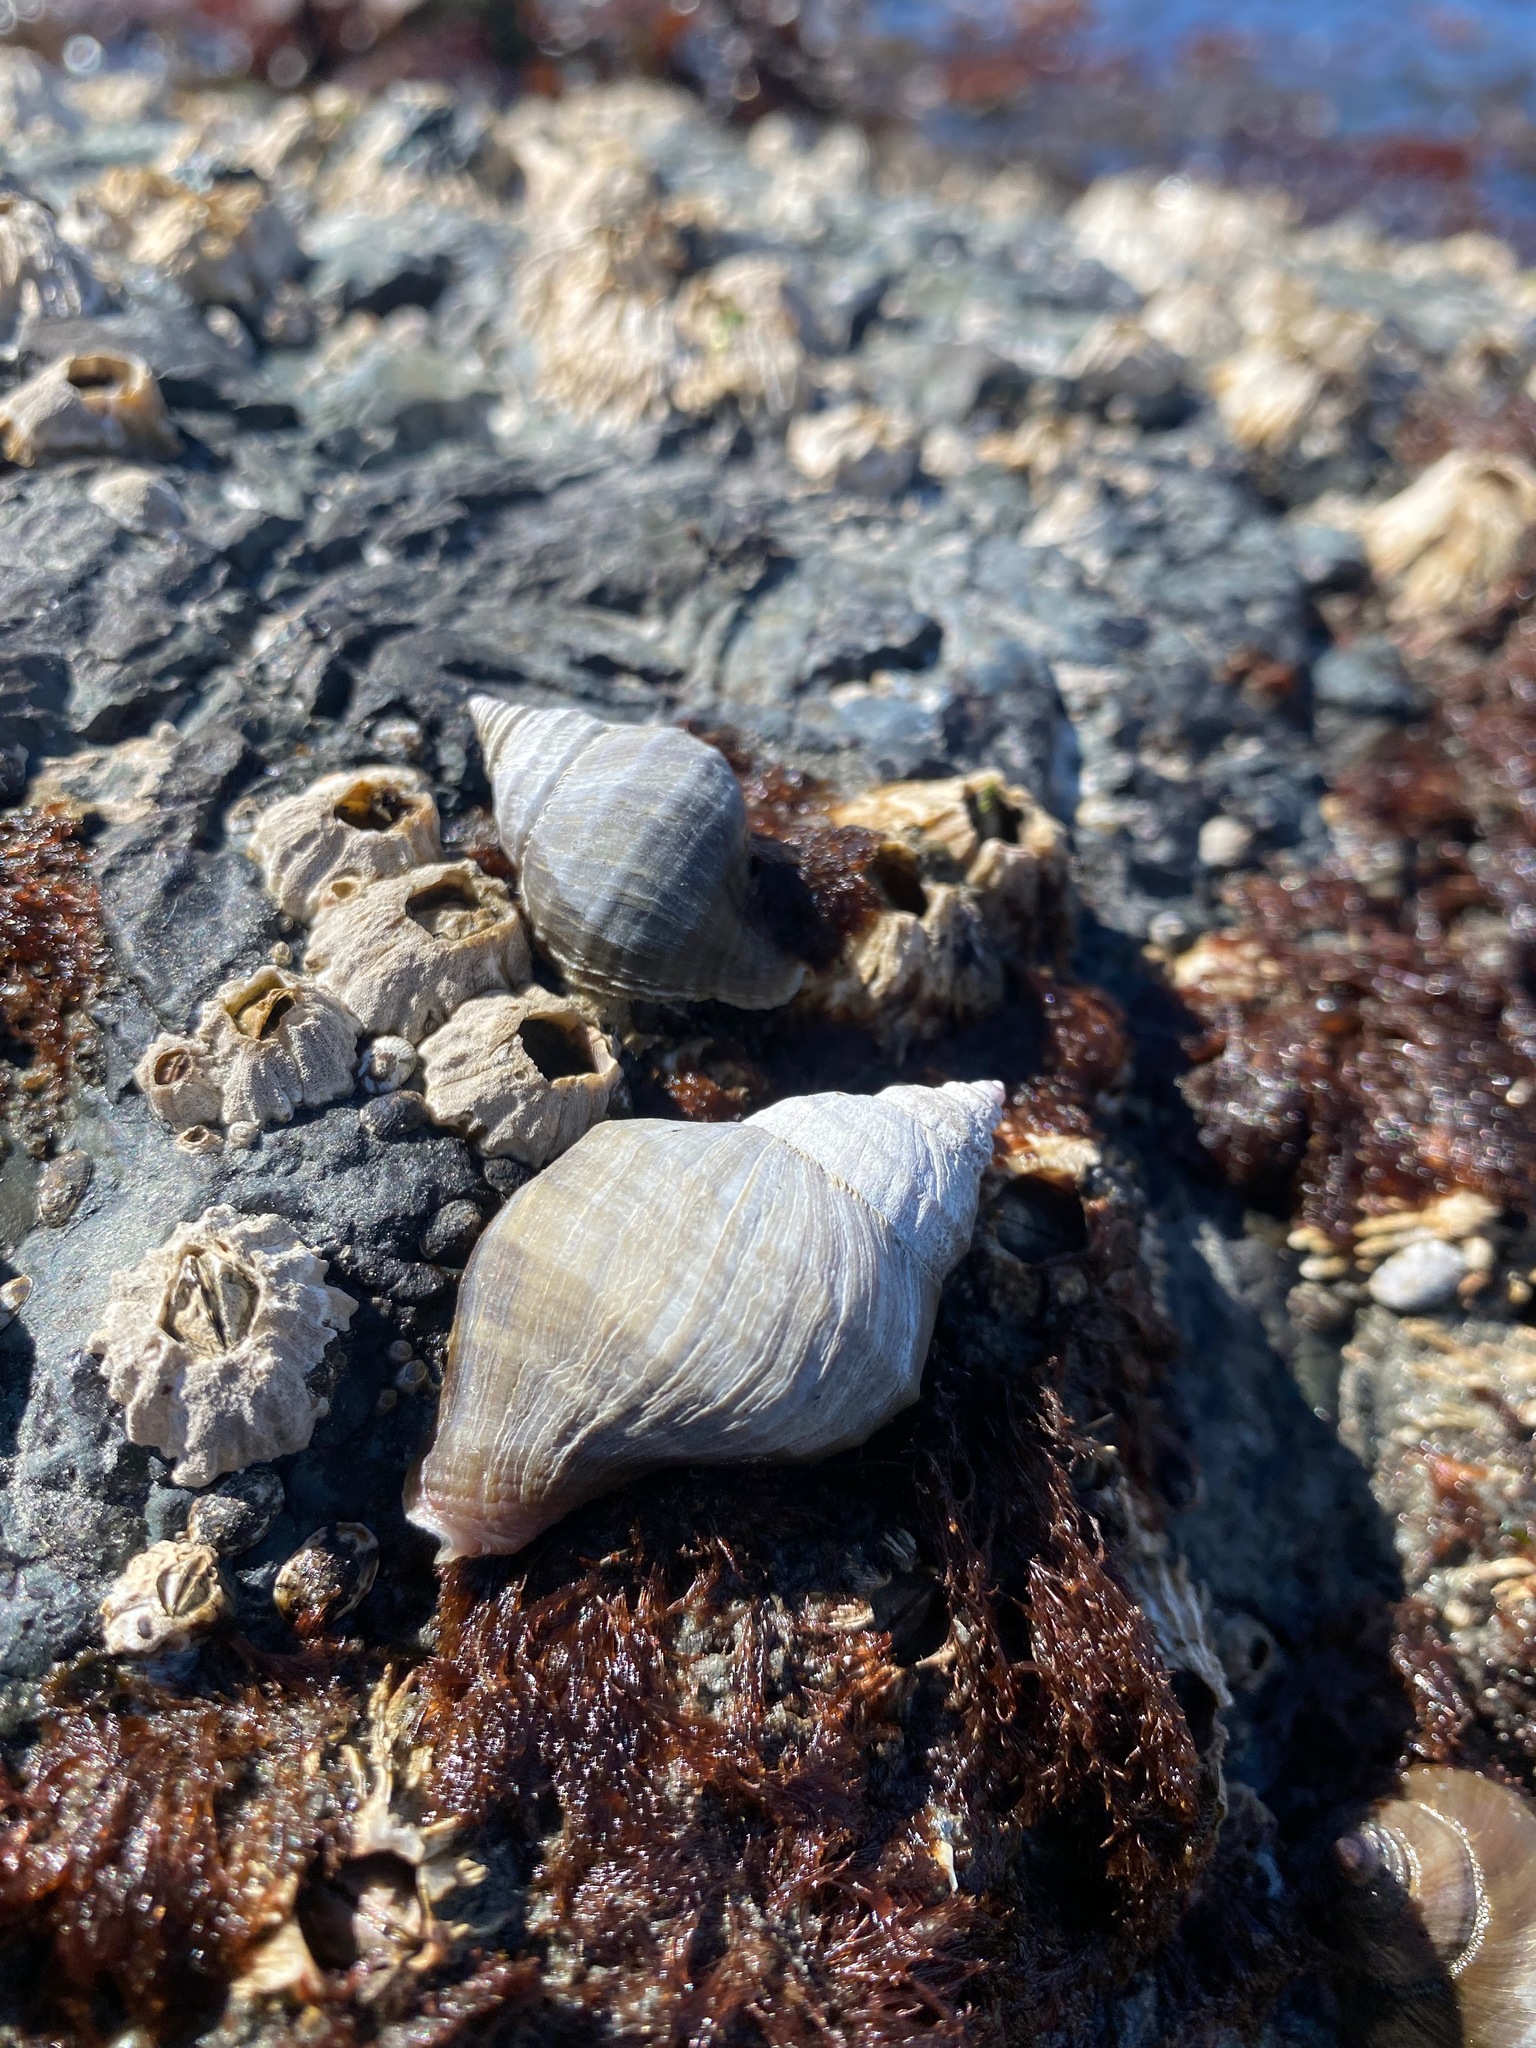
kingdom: Animalia
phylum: Mollusca
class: Gastropoda
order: Neogastropoda
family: Muricidae
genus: Nucella
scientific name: Nucella lamellosa
